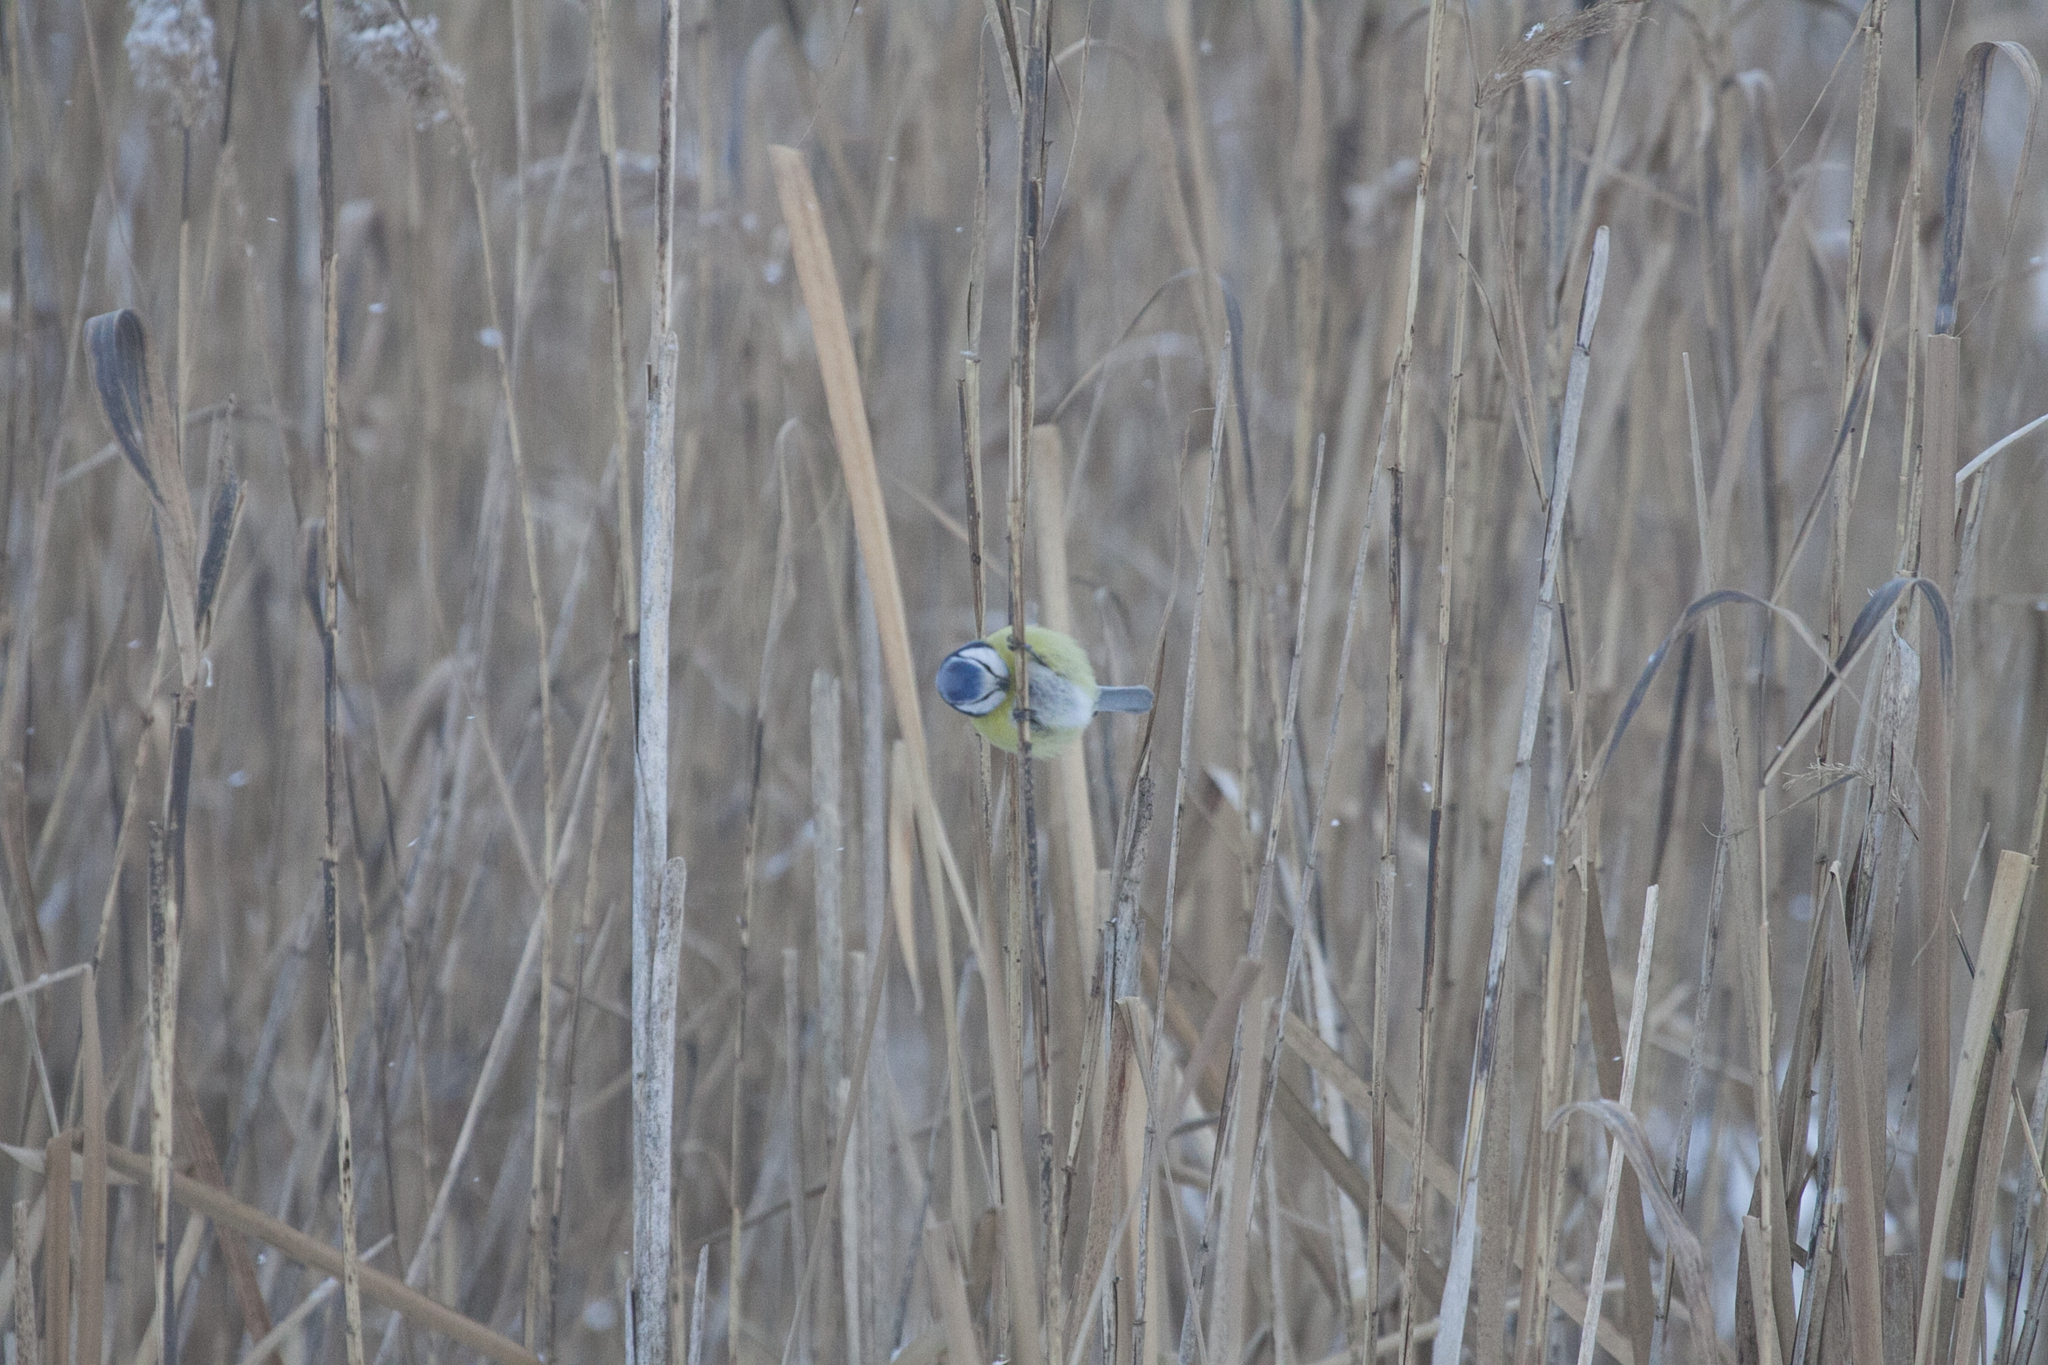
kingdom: Animalia
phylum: Chordata
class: Aves
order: Passeriformes
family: Paridae
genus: Cyanistes
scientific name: Cyanistes caeruleus
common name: Eurasian blue tit
